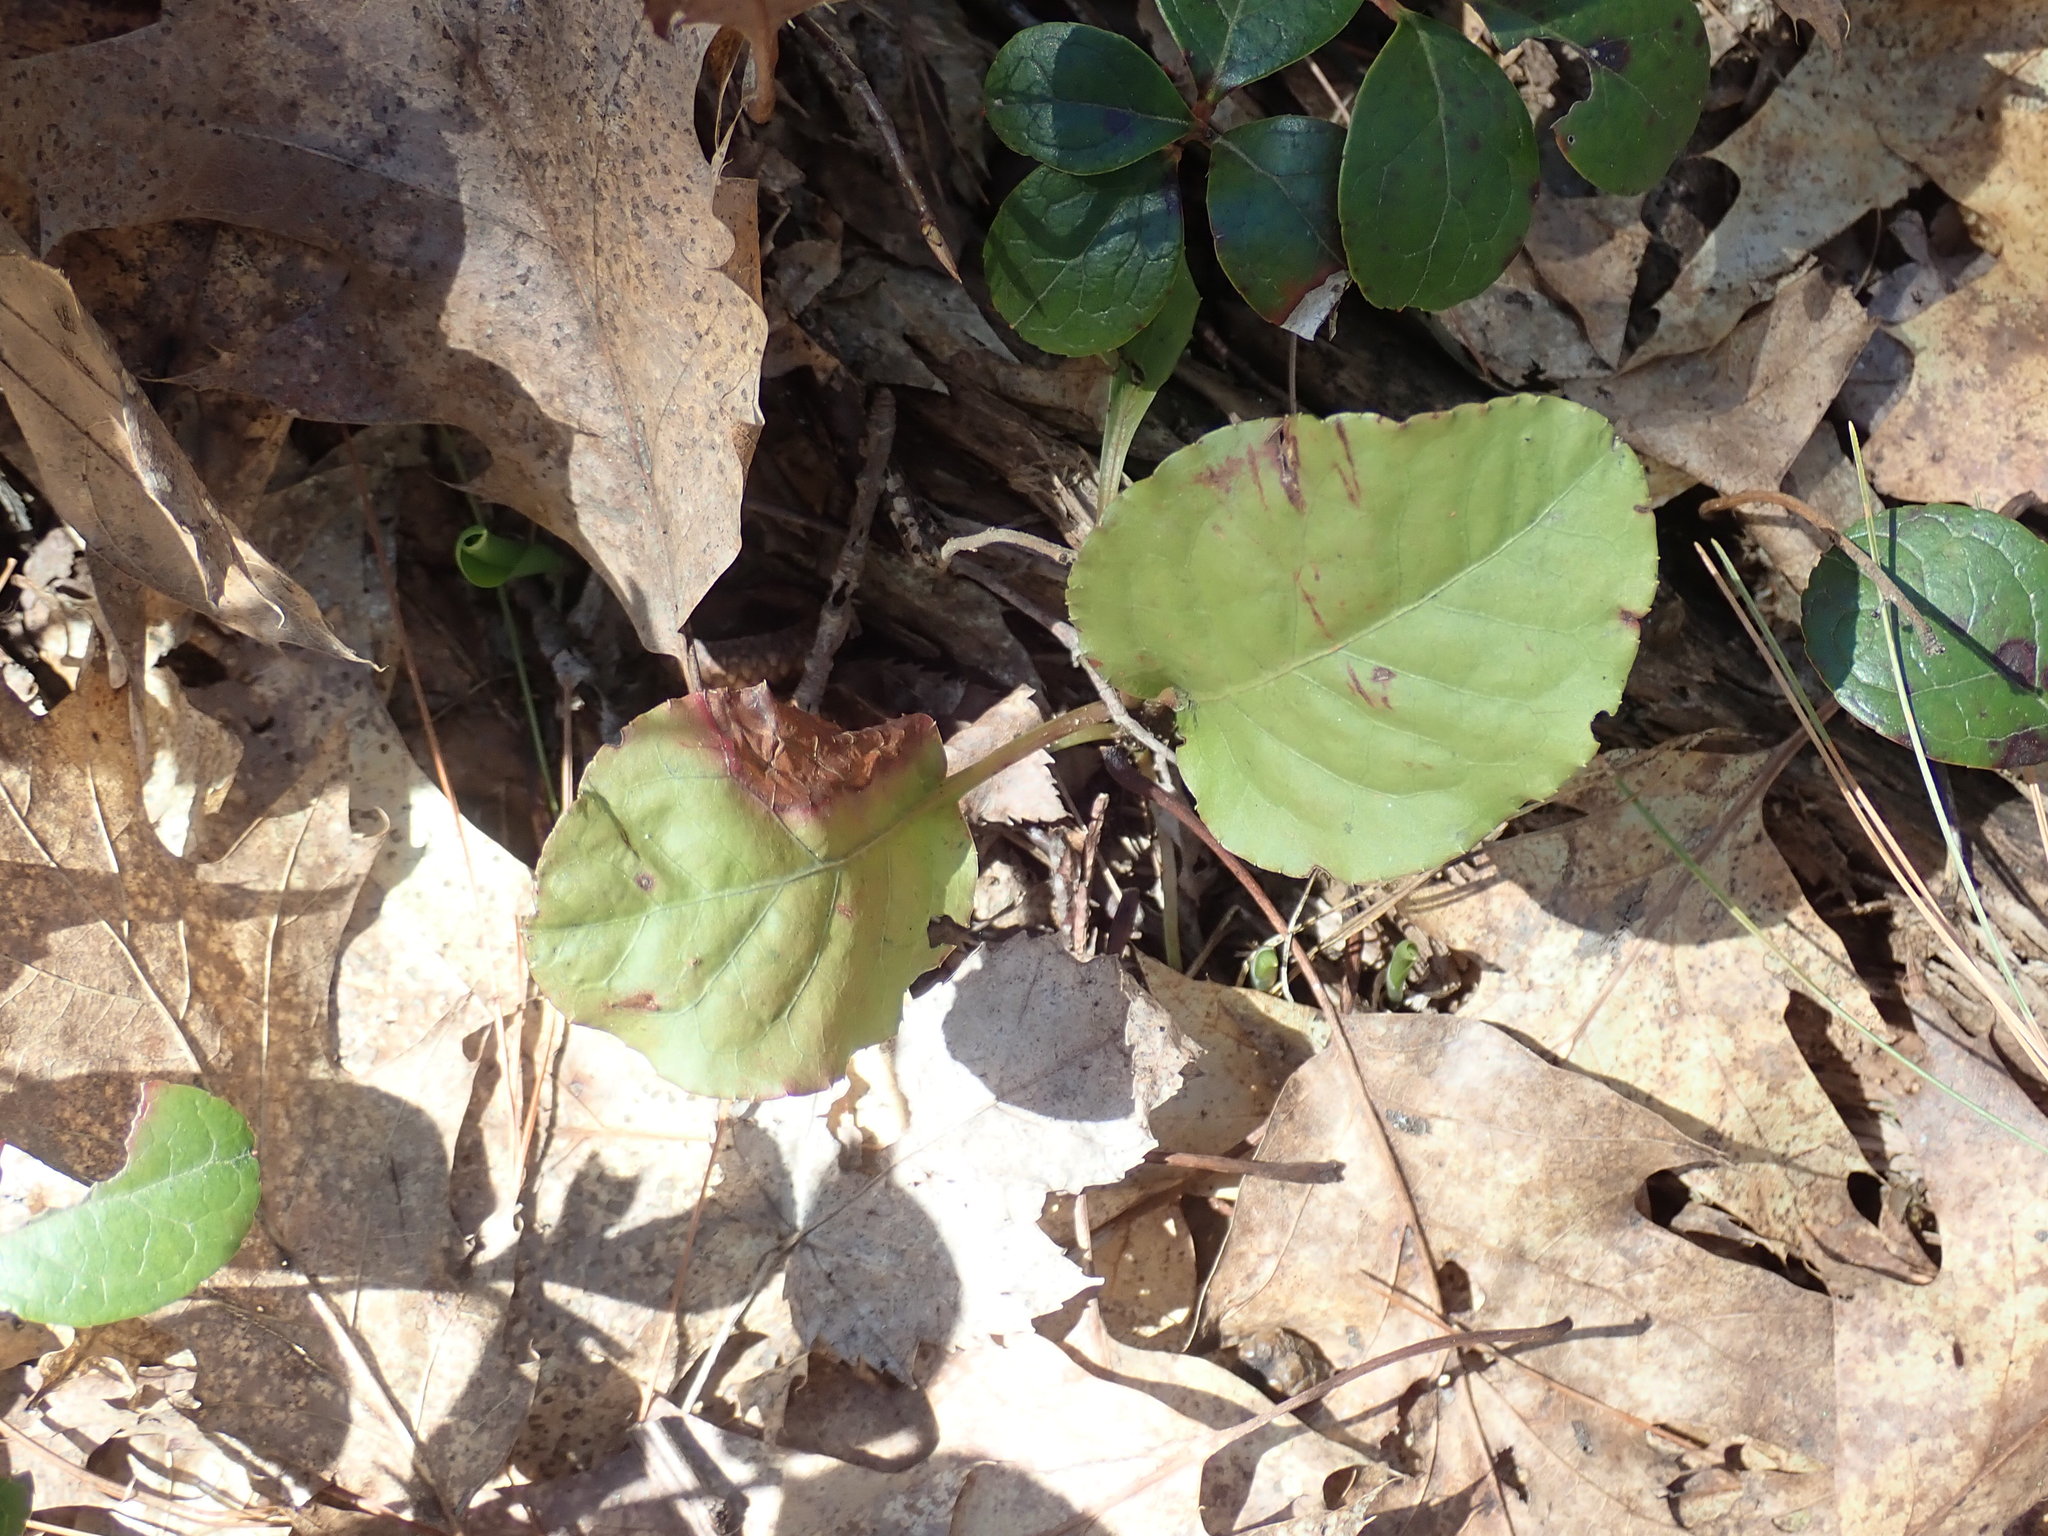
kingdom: Plantae
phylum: Tracheophyta
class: Magnoliopsida
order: Ericales
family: Ericaceae
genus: Pyrola
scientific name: Pyrola elliptica
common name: Shinleaf
